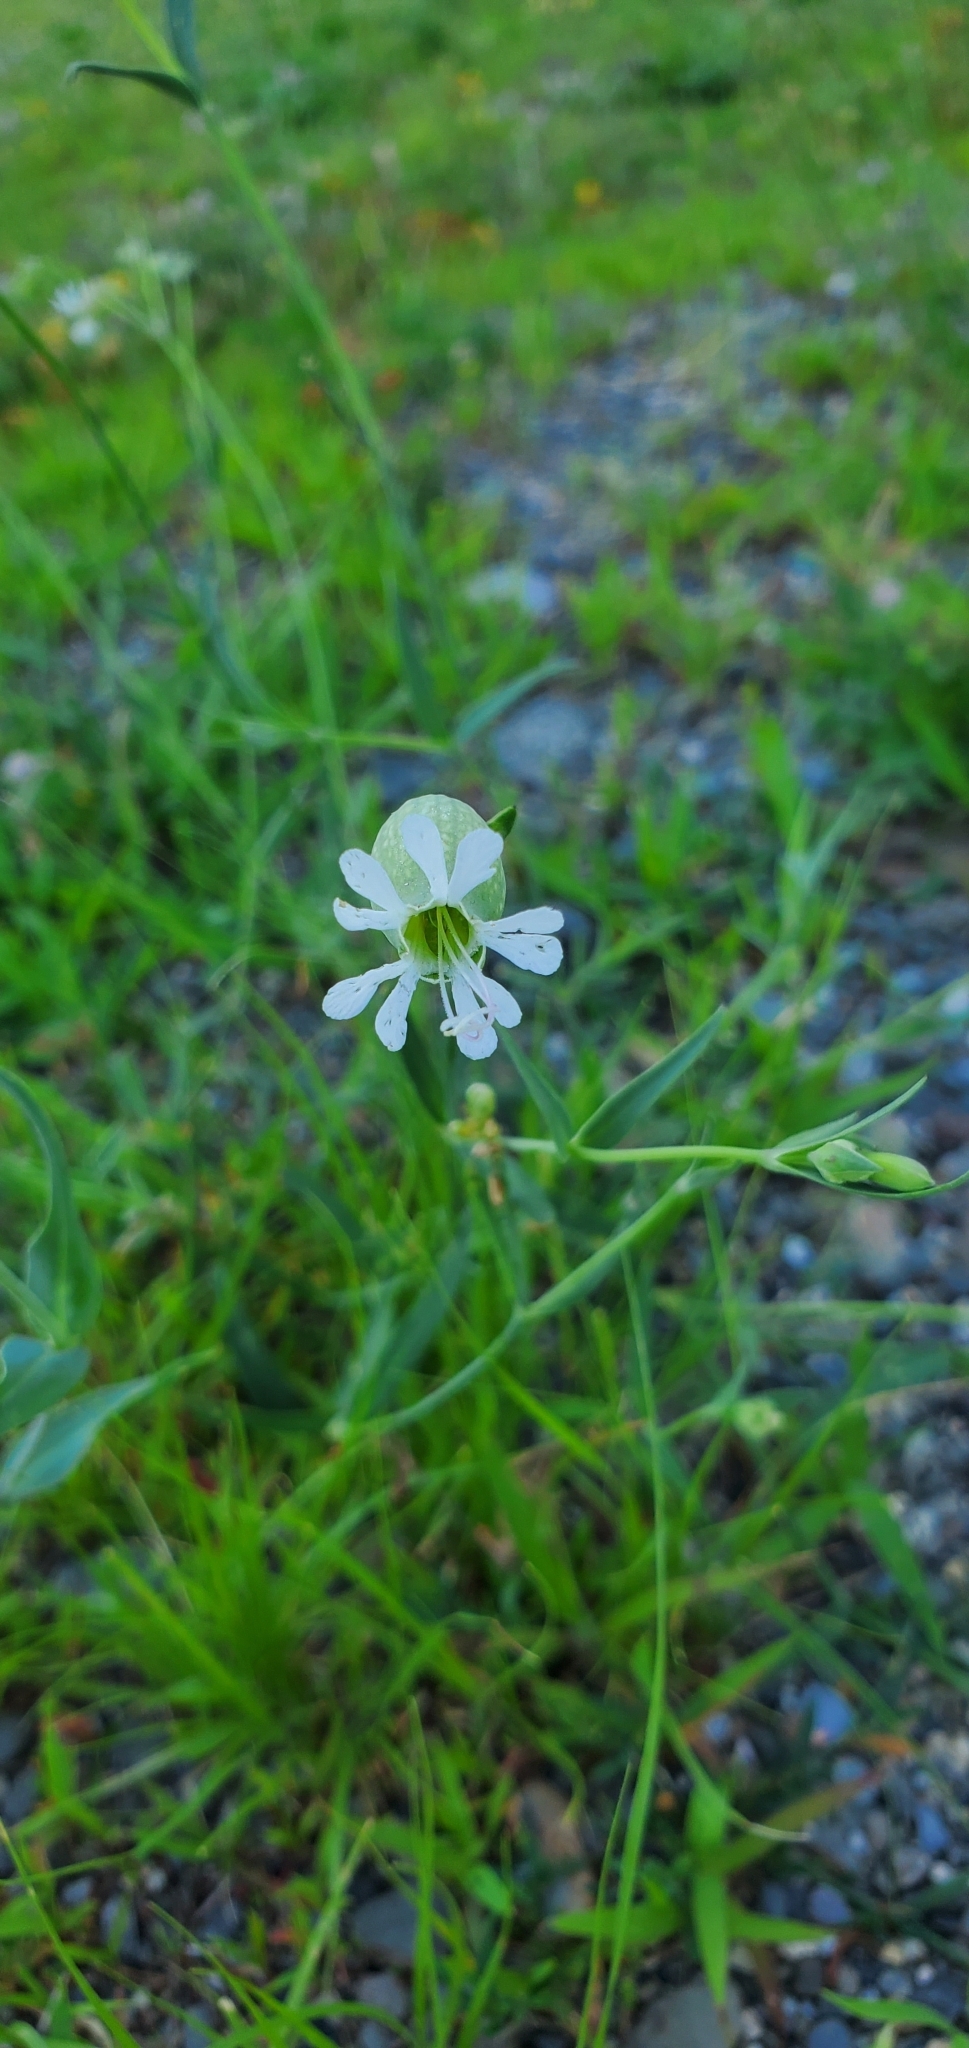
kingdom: Plantae
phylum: Tracheophyta
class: Magnoliopsida
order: Caryophyllales
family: Caryophyllaceae
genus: Silene
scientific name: Silene vulgaris
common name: Bladder campion
